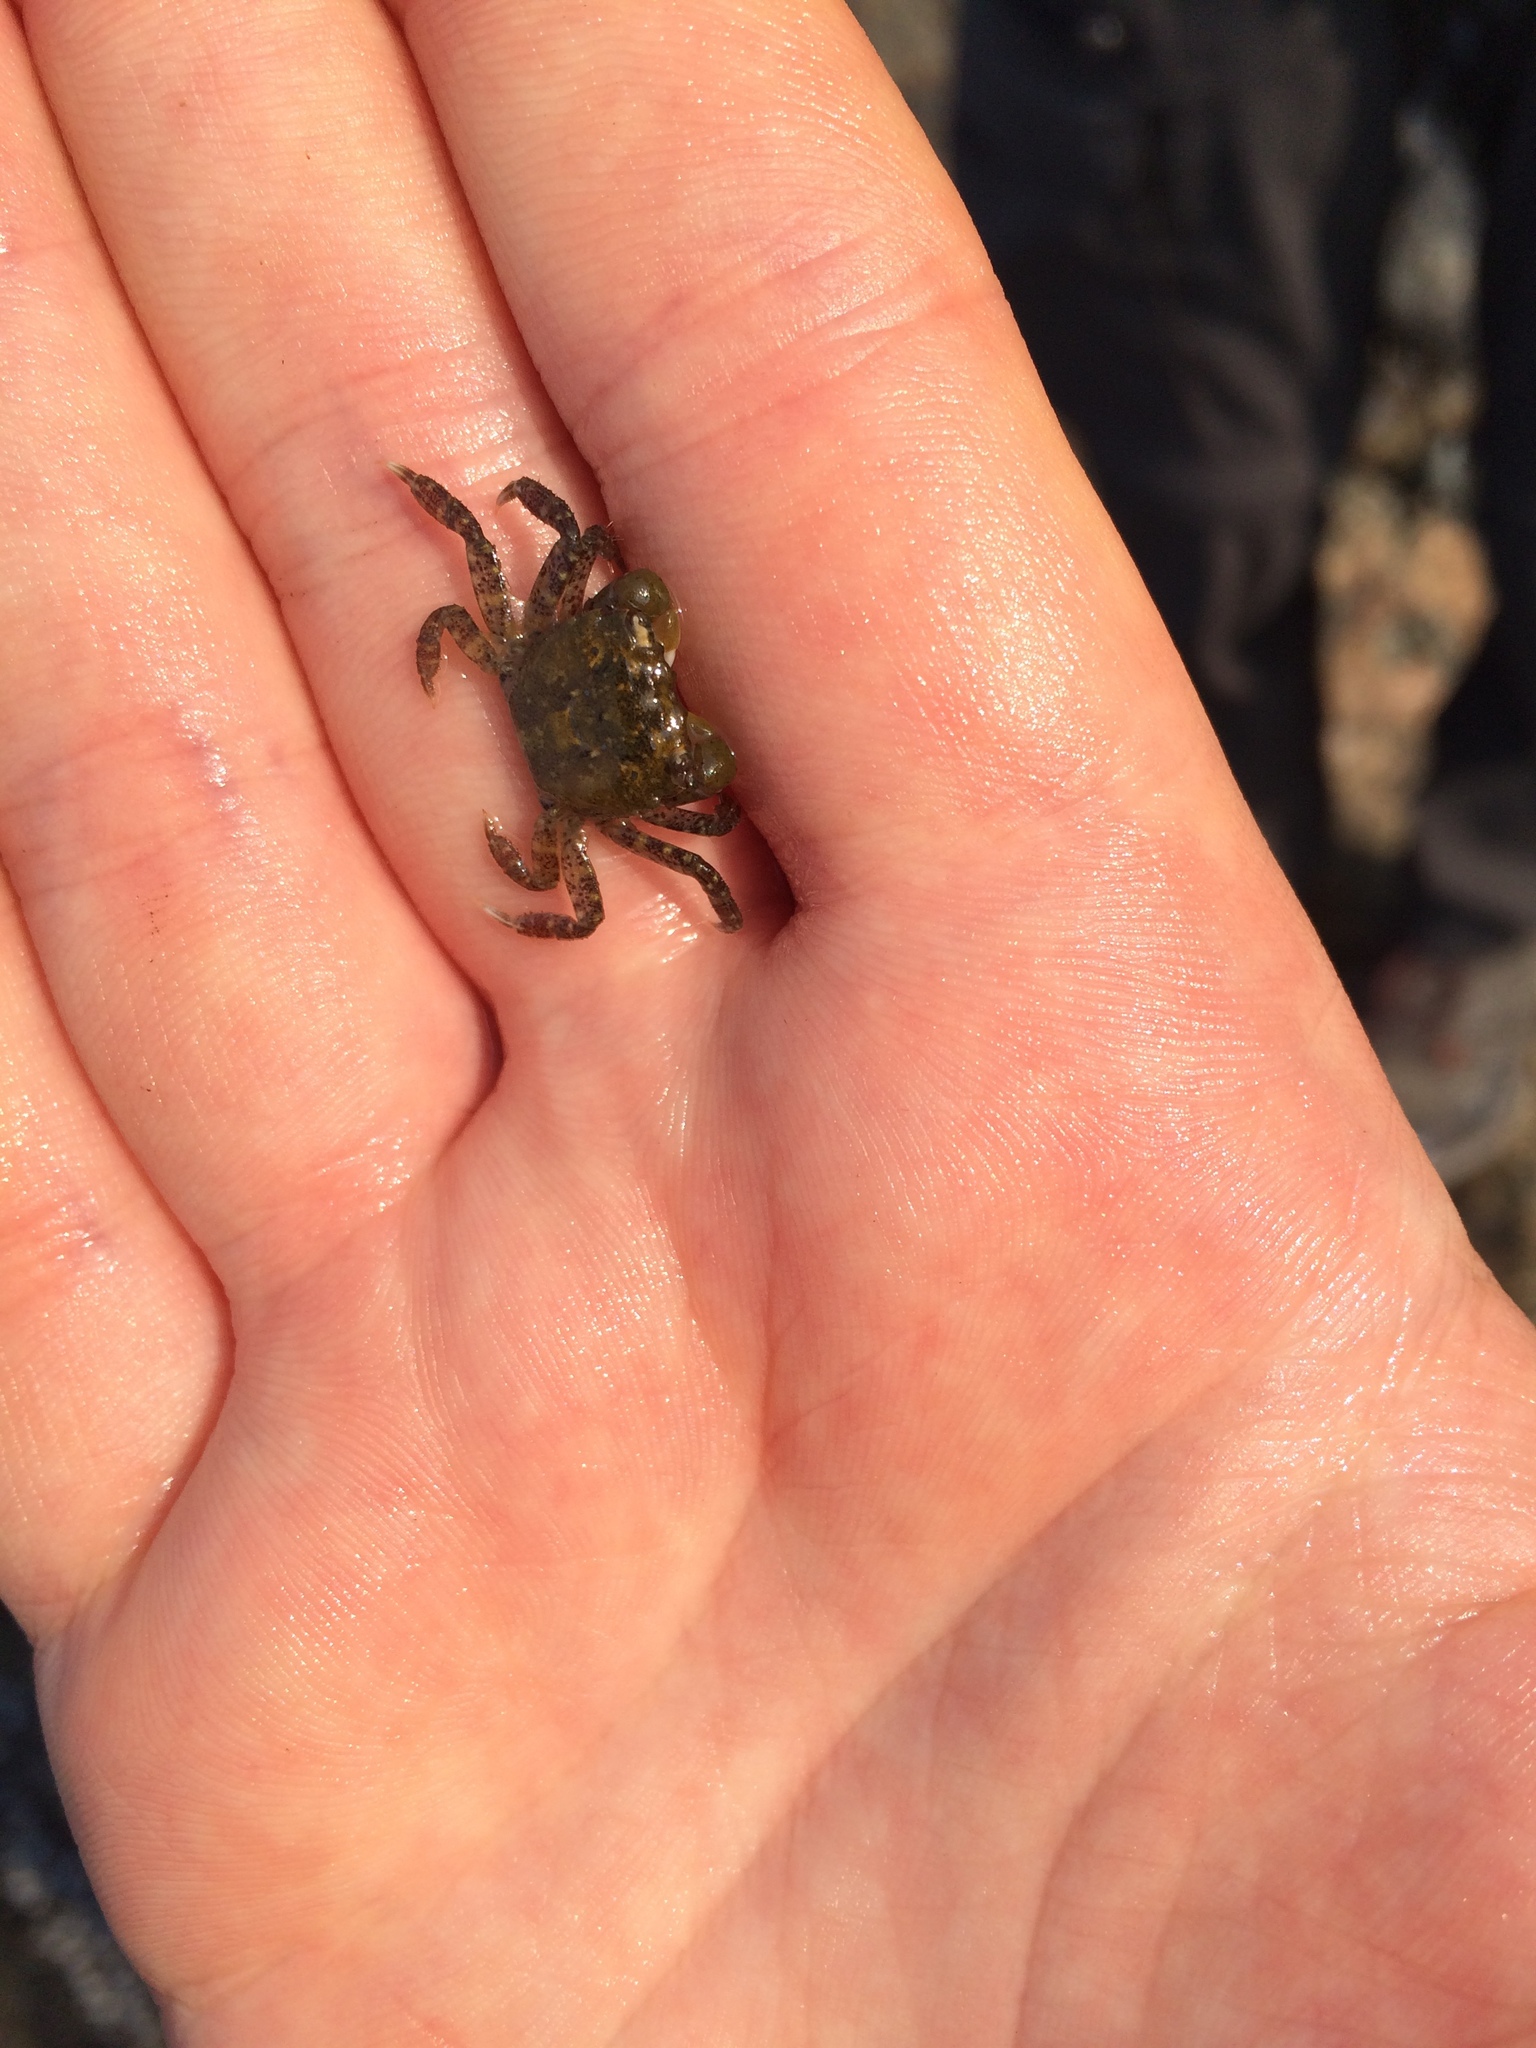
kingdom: Animalia
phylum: Arthropoda
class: Malacostraca
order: Decapoda
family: Varunidae
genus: Hemigrapsus
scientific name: Hemigrapsus oregonensis
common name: Yellow shore crab
